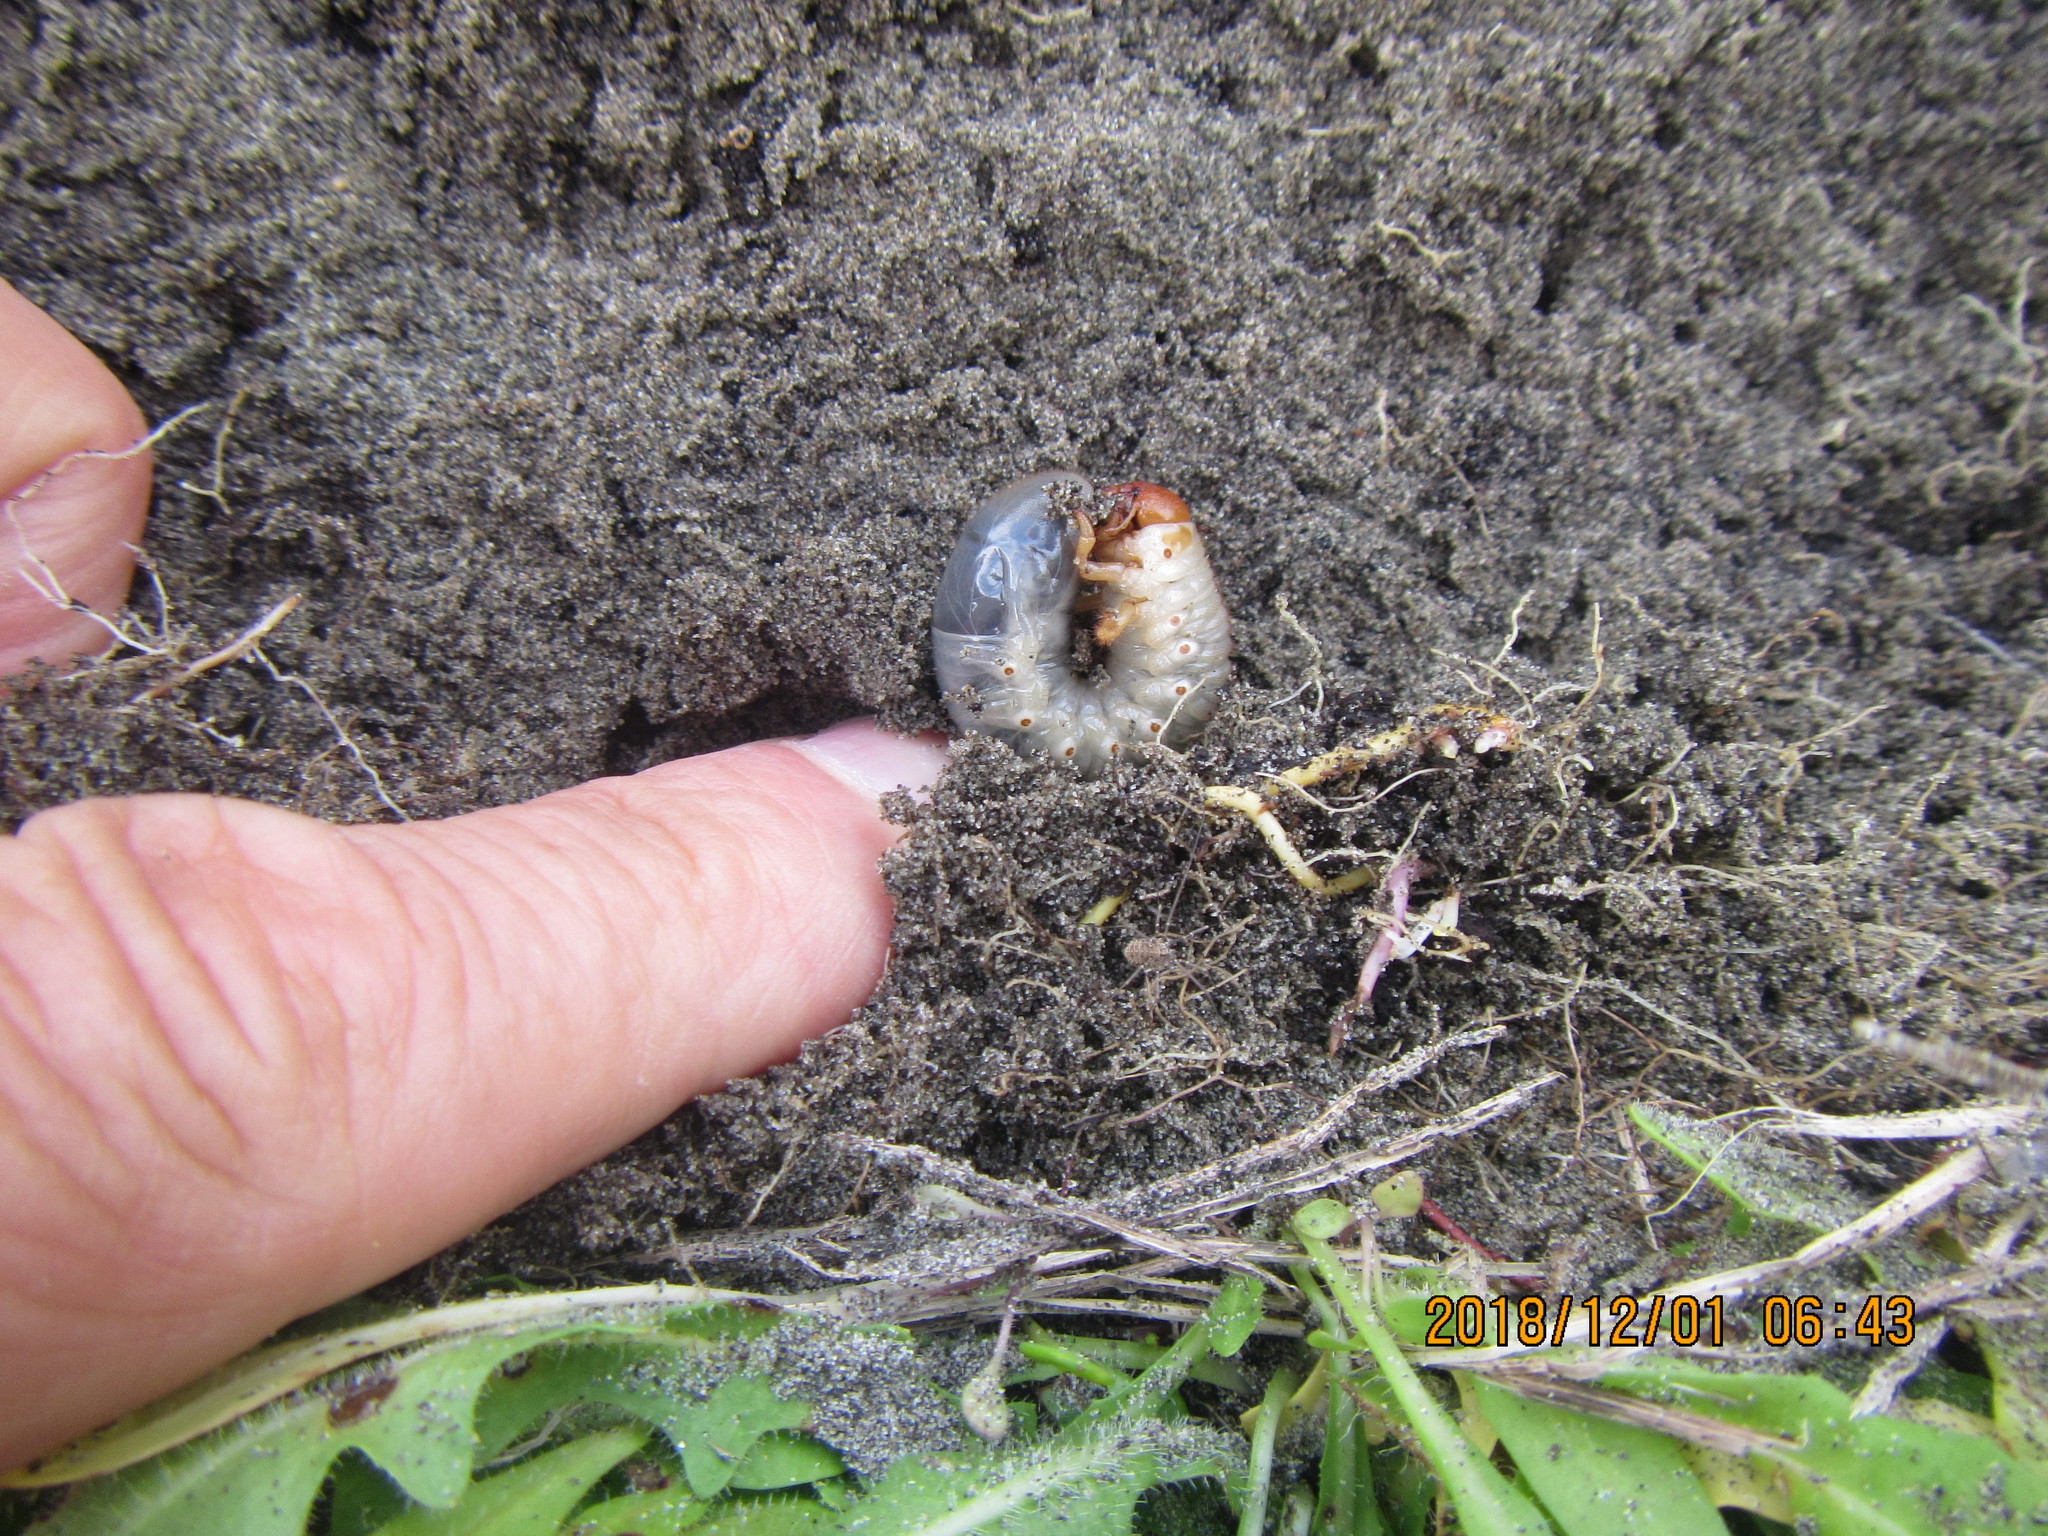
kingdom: Animalia
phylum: Arthropoda
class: Insecta
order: Coleoptera
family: Scarabaeidae
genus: Pericoptus
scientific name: Pericoptus truncatus
